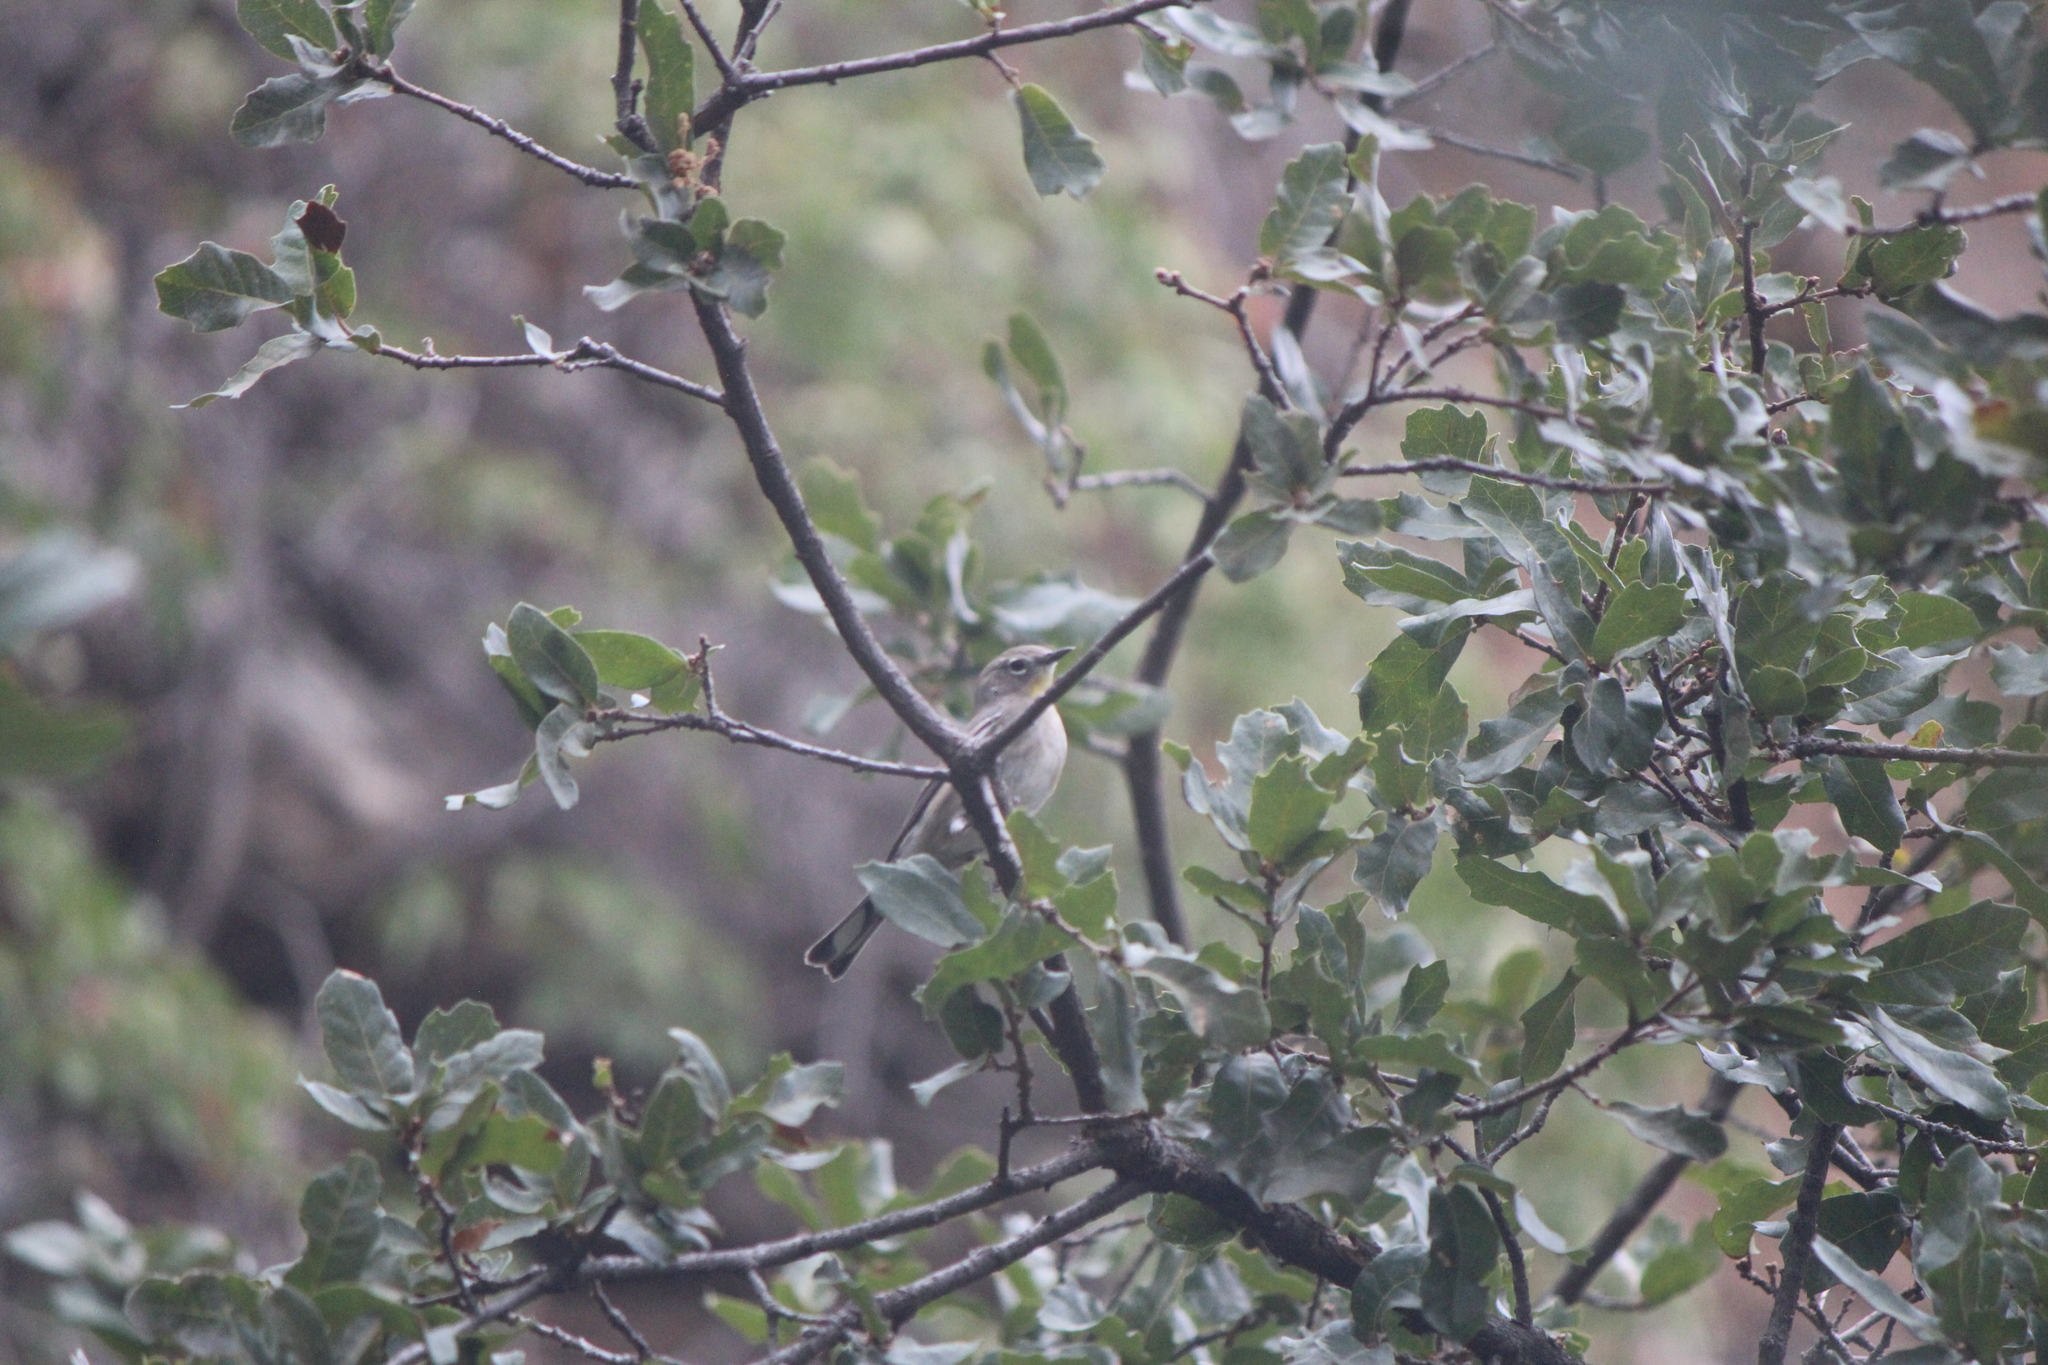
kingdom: Animalia
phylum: Chordata
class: Aves
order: Passeriformes
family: Parulidae
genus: Setophaga
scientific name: Setophaga coronata
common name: Myrtle warbler
